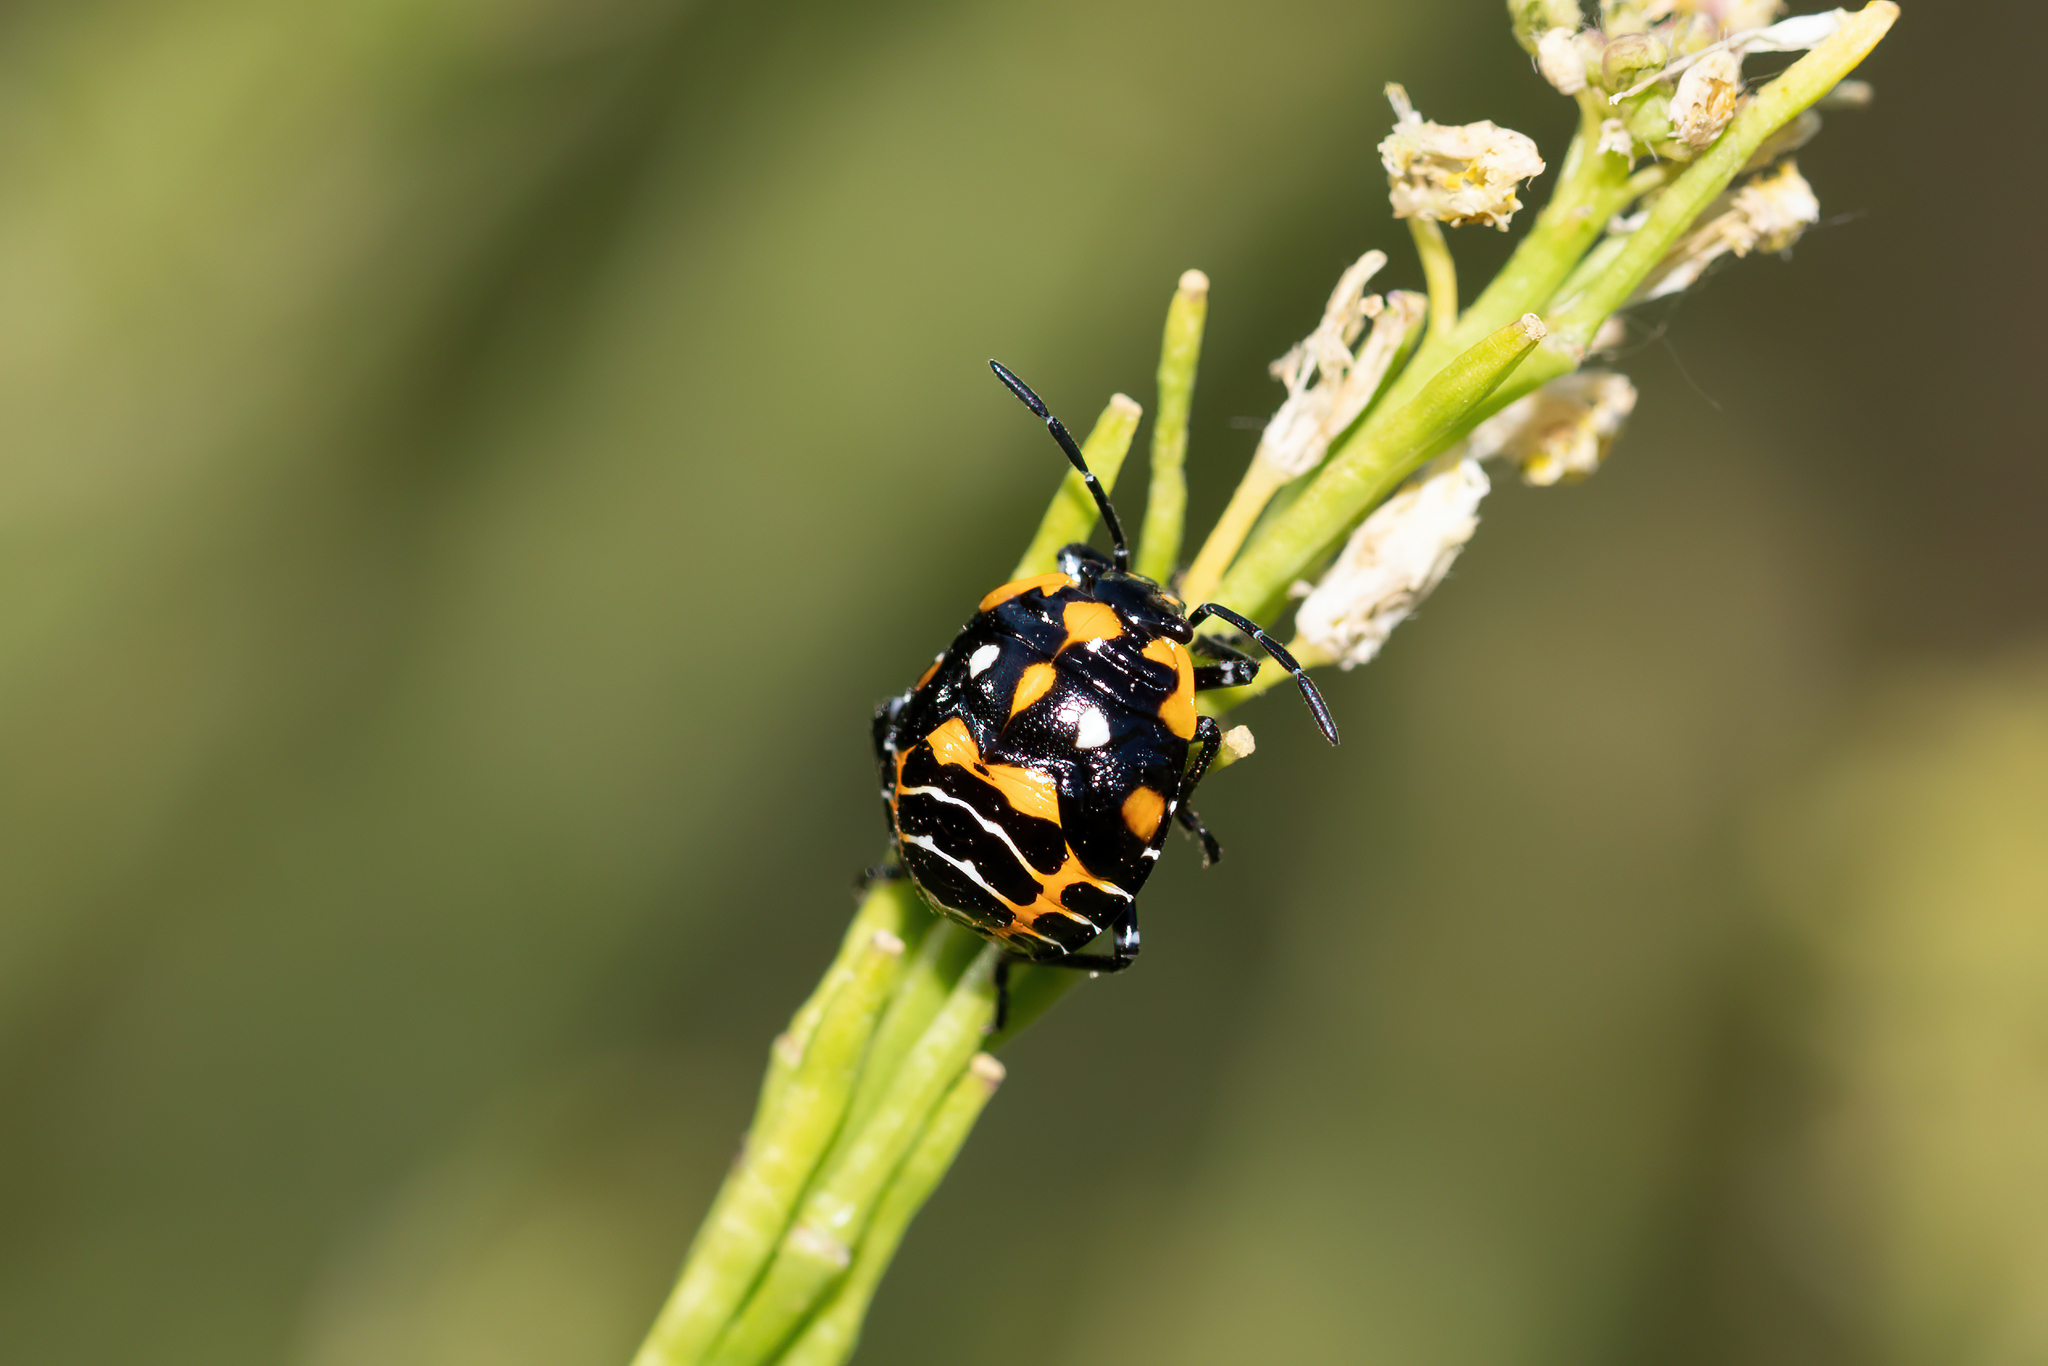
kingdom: Animalia
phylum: Arthropoda
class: Insecta
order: Hemiptera
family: Pentatomidae
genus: Murgantia
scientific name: Murgantia histrionica
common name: Harlequin bug
